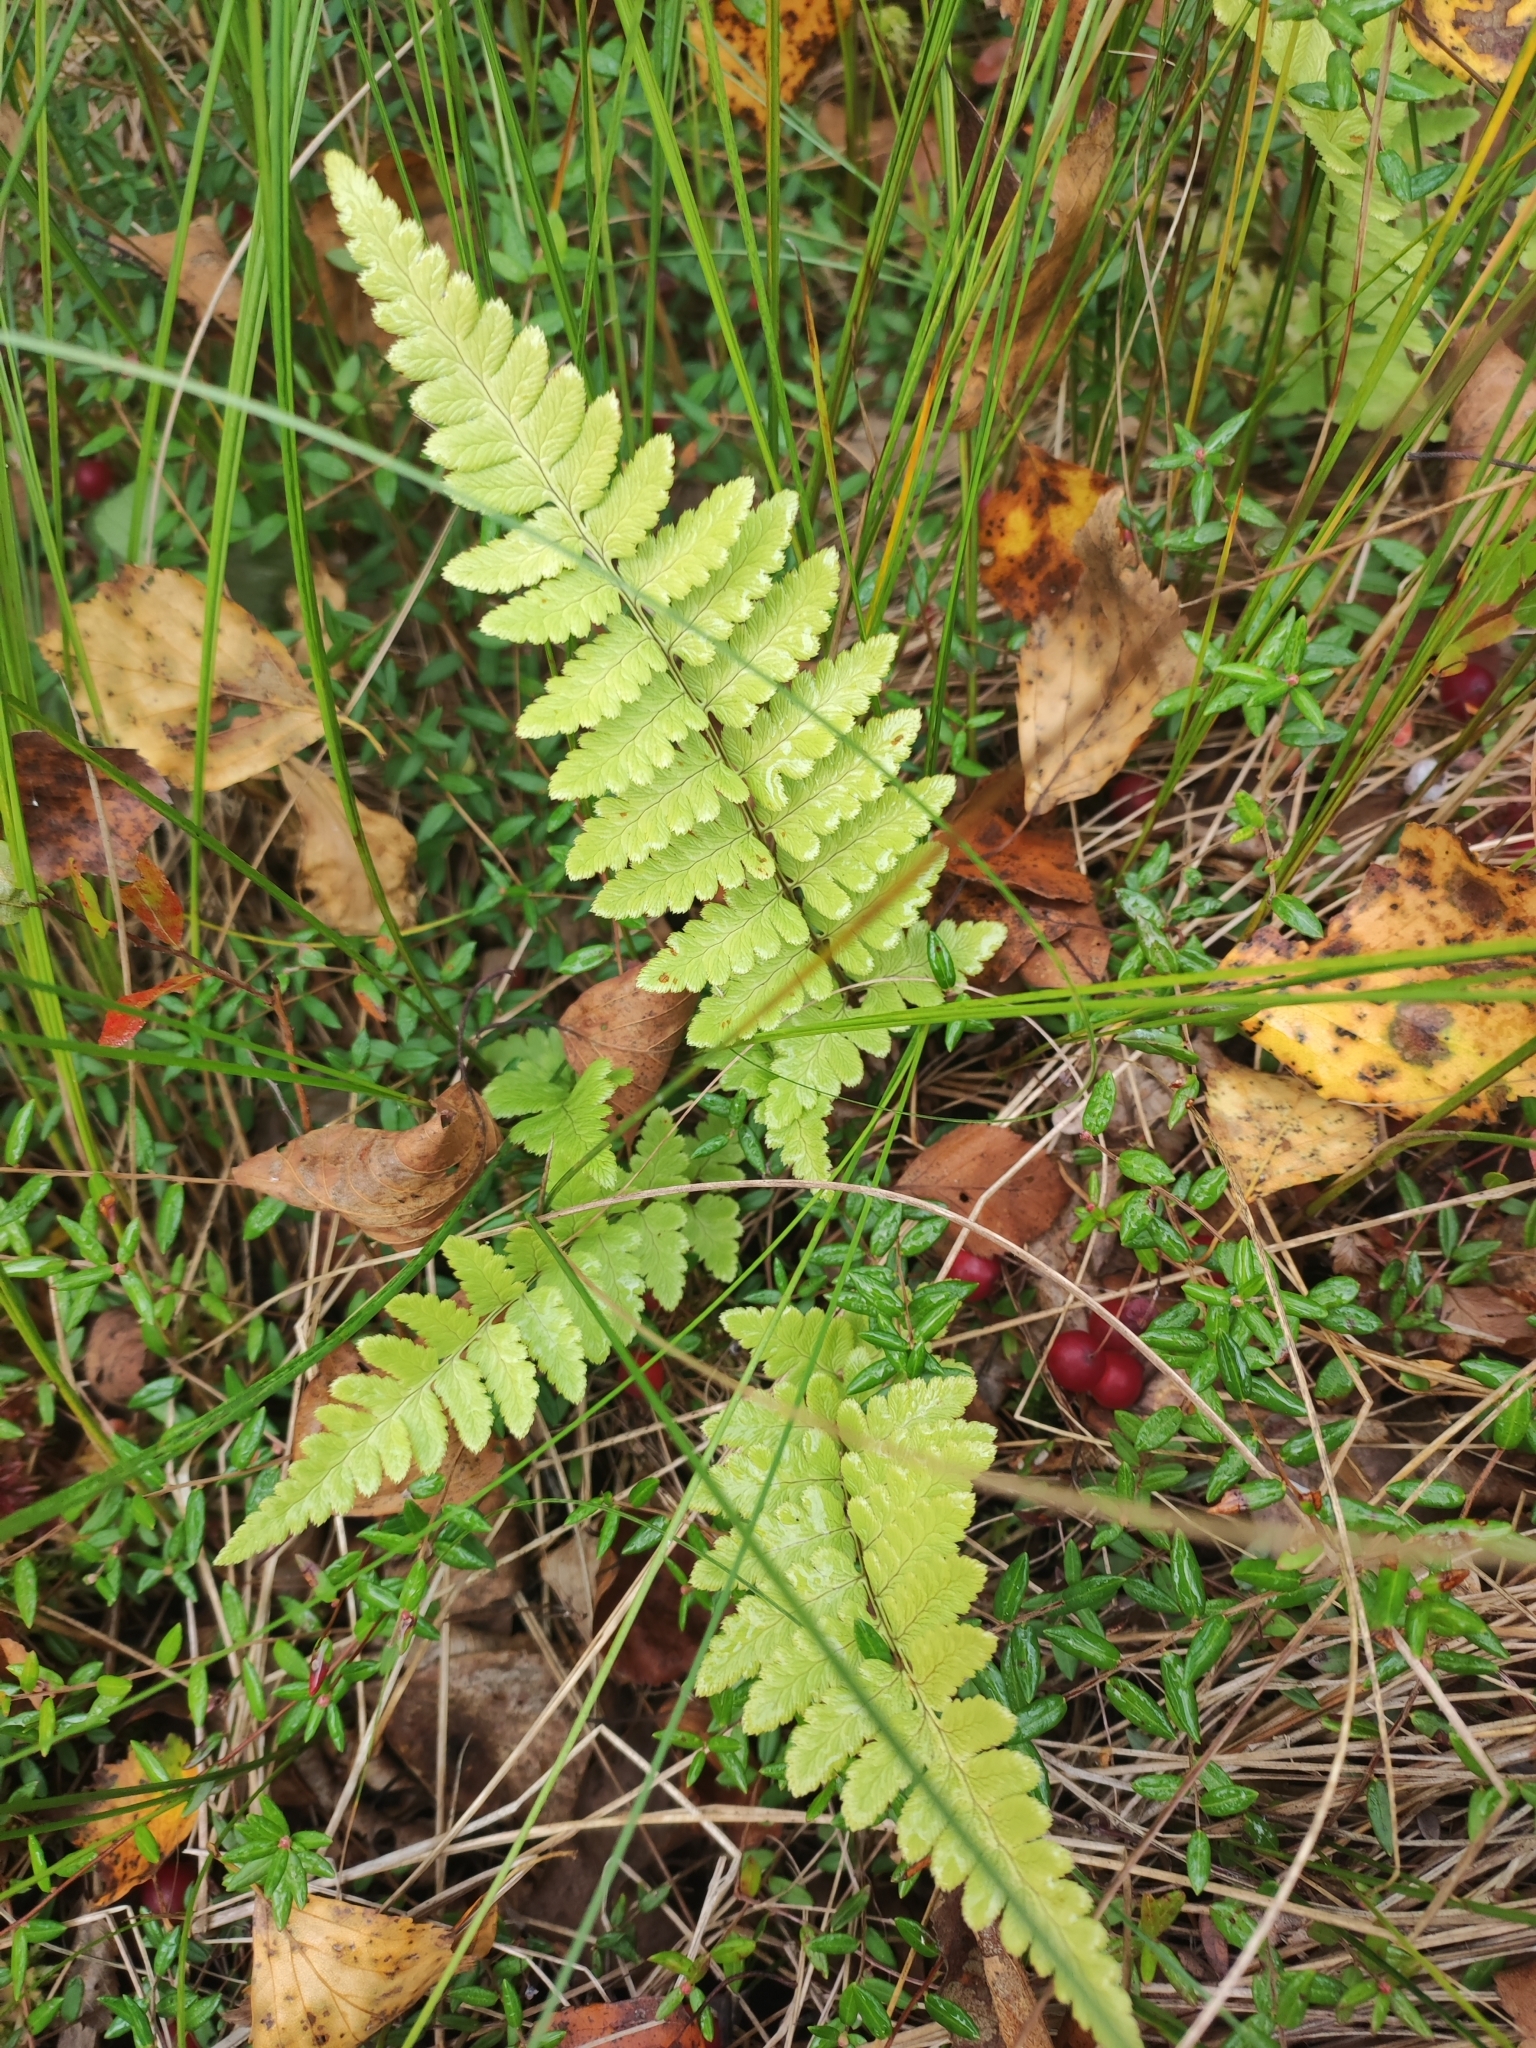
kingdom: Plantae
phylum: Tracheophyta
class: Polypodiopsida
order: Polypodiales
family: Dryopteridaceae
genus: Dryopteris
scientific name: Dryopteris cristata
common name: Crested wood fern
